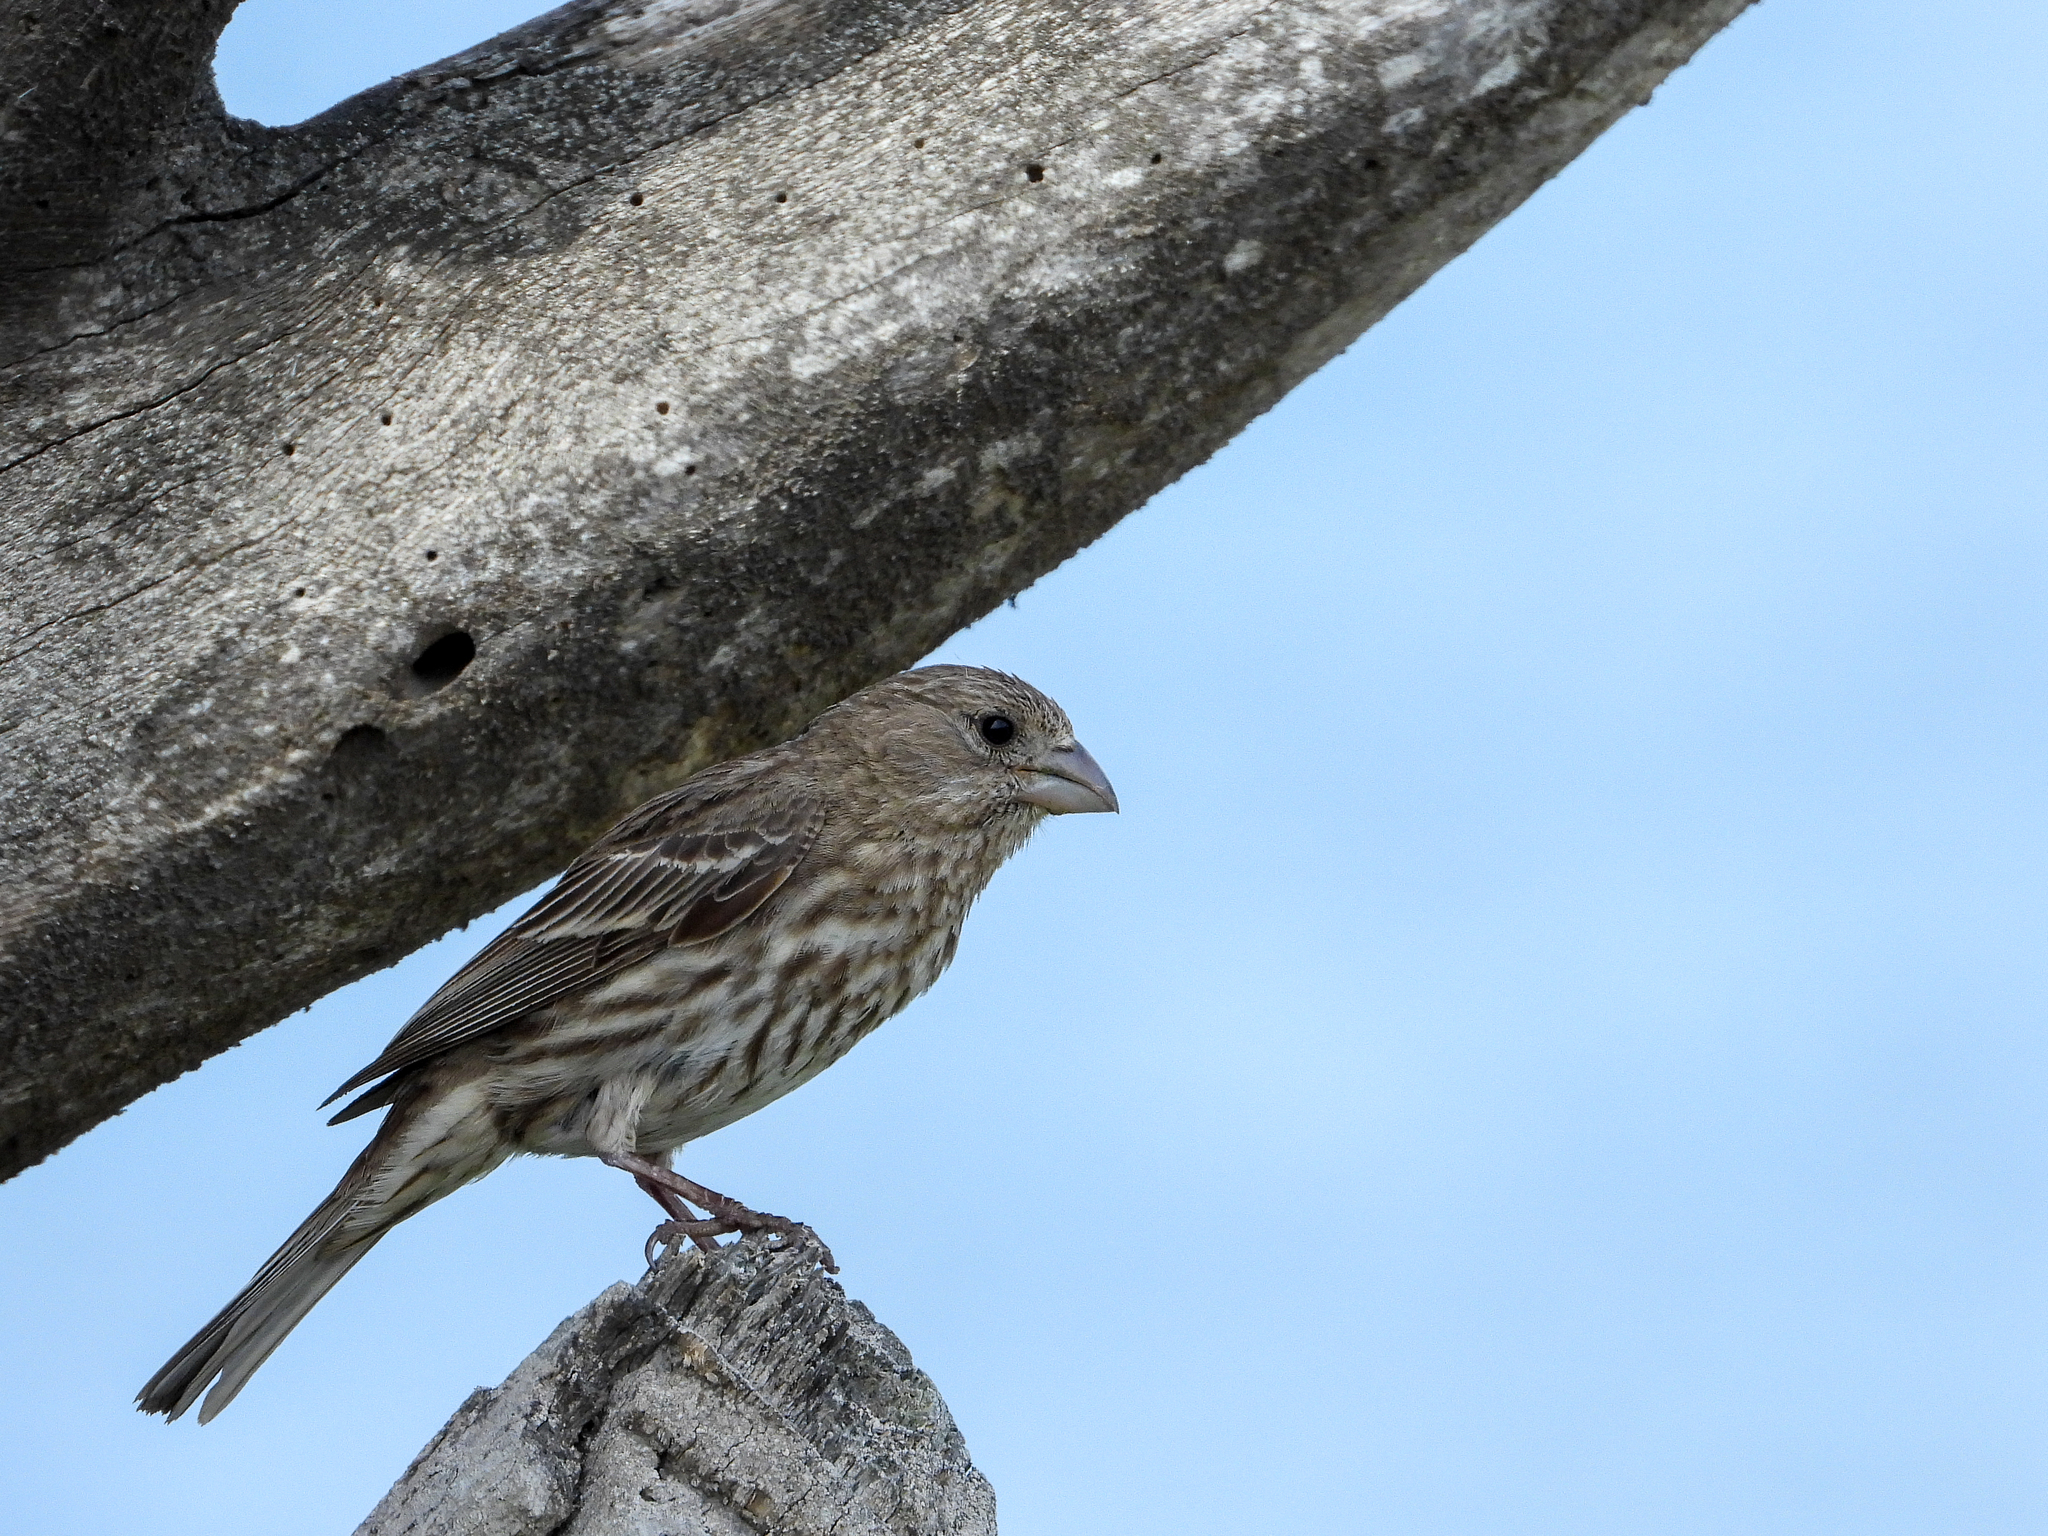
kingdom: Animalia
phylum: Chordata
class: Aves
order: Passeriformes
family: Fringillidae
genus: Haemorhous
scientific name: Haemorhous mexicanus
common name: House finch
